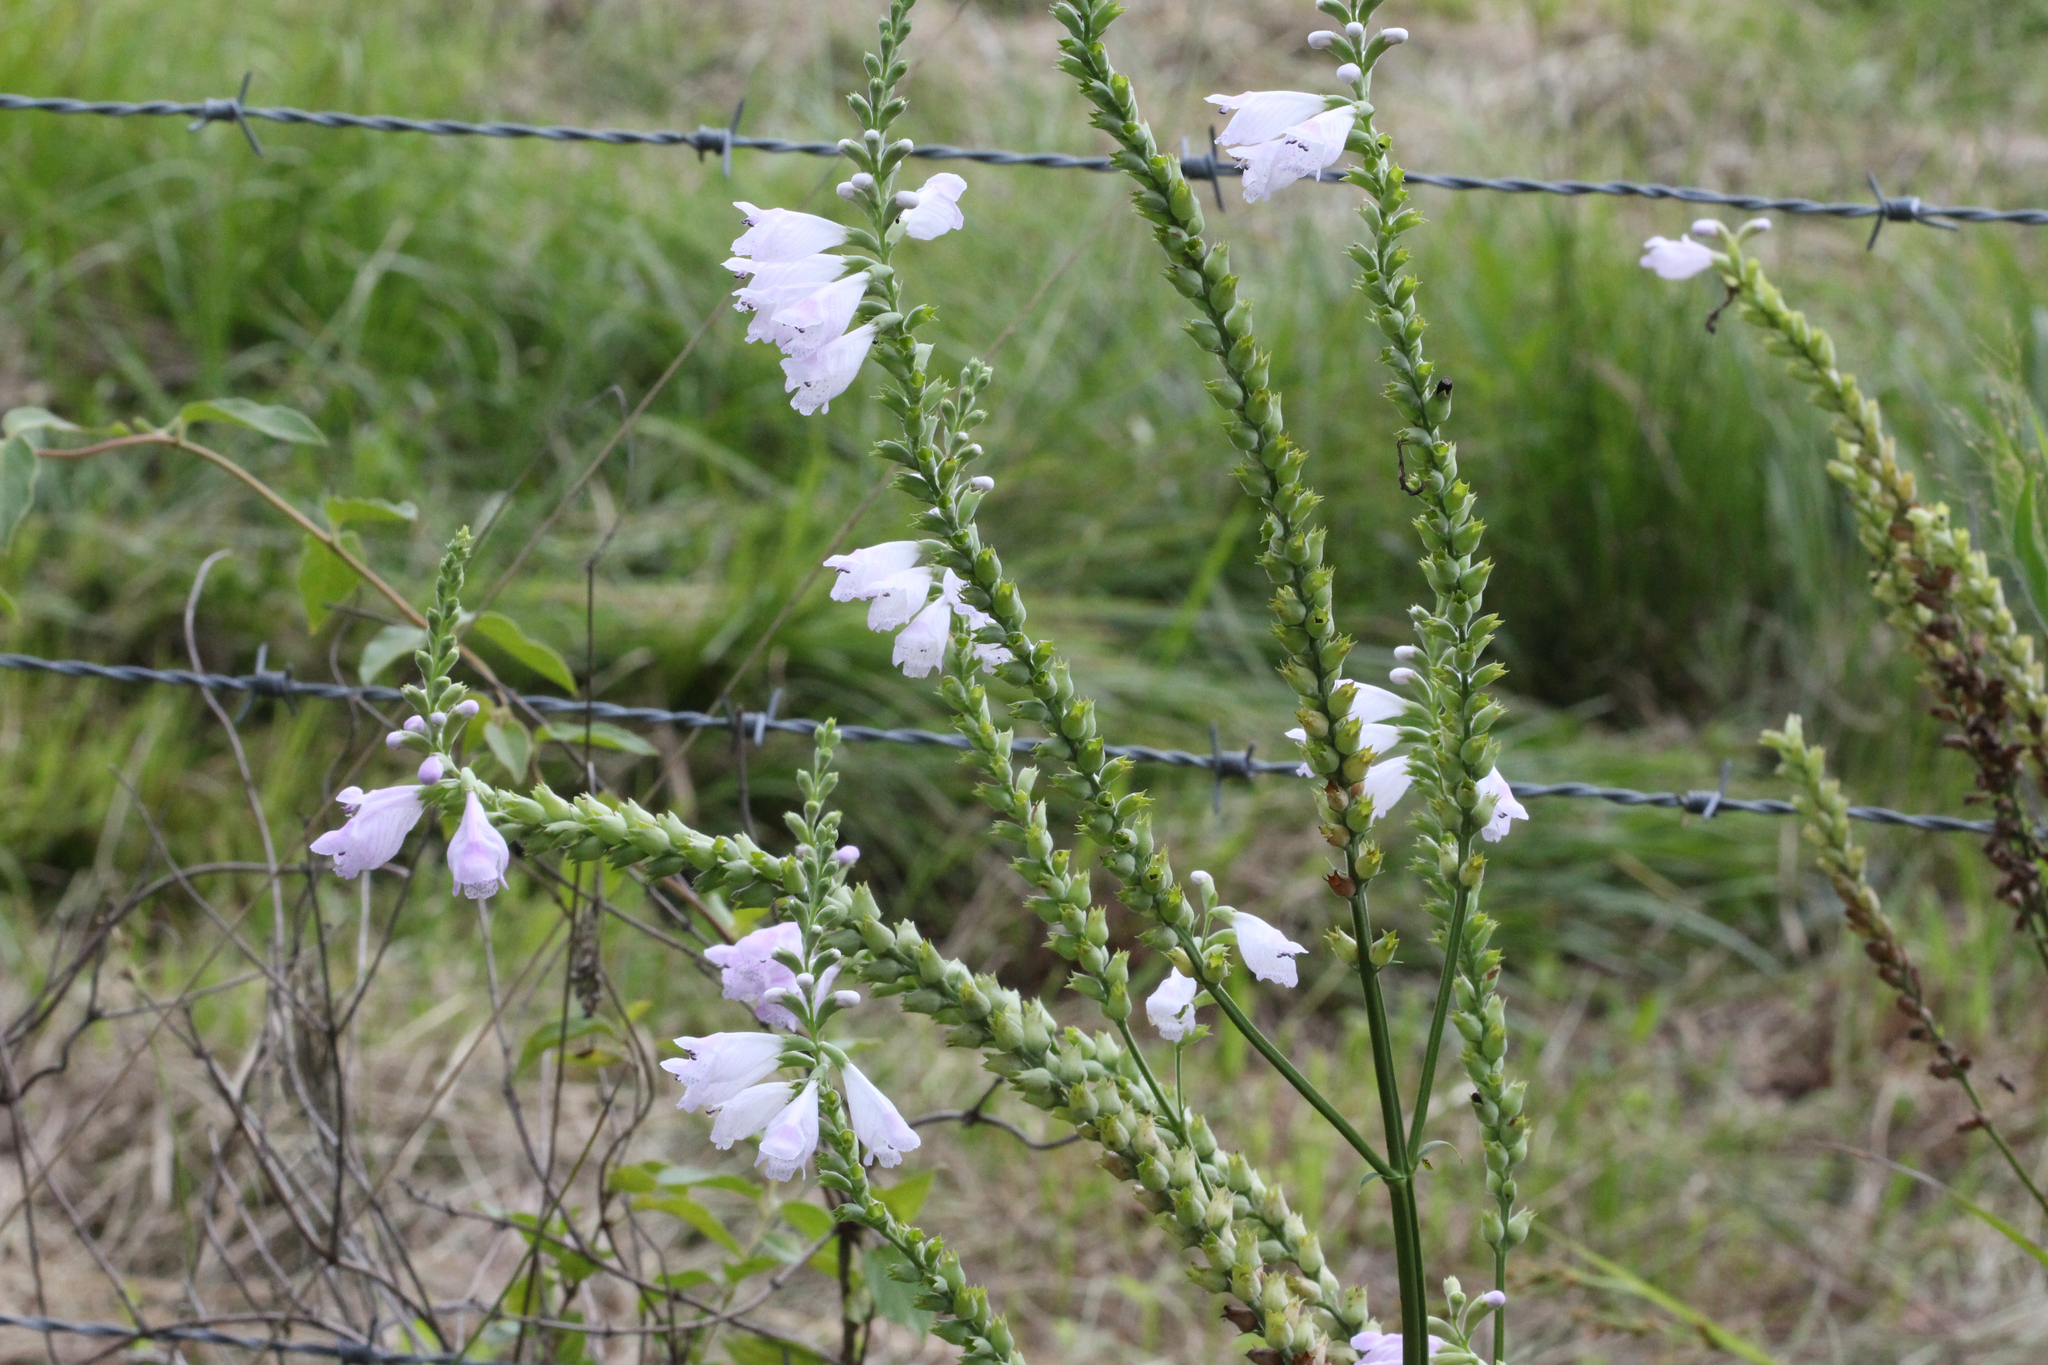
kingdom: Plantae
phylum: Tracheophyta
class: Magnoliopsida
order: Lamiales
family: Lamiaceae
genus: Physostegia
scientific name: Physostegia angustifolia
